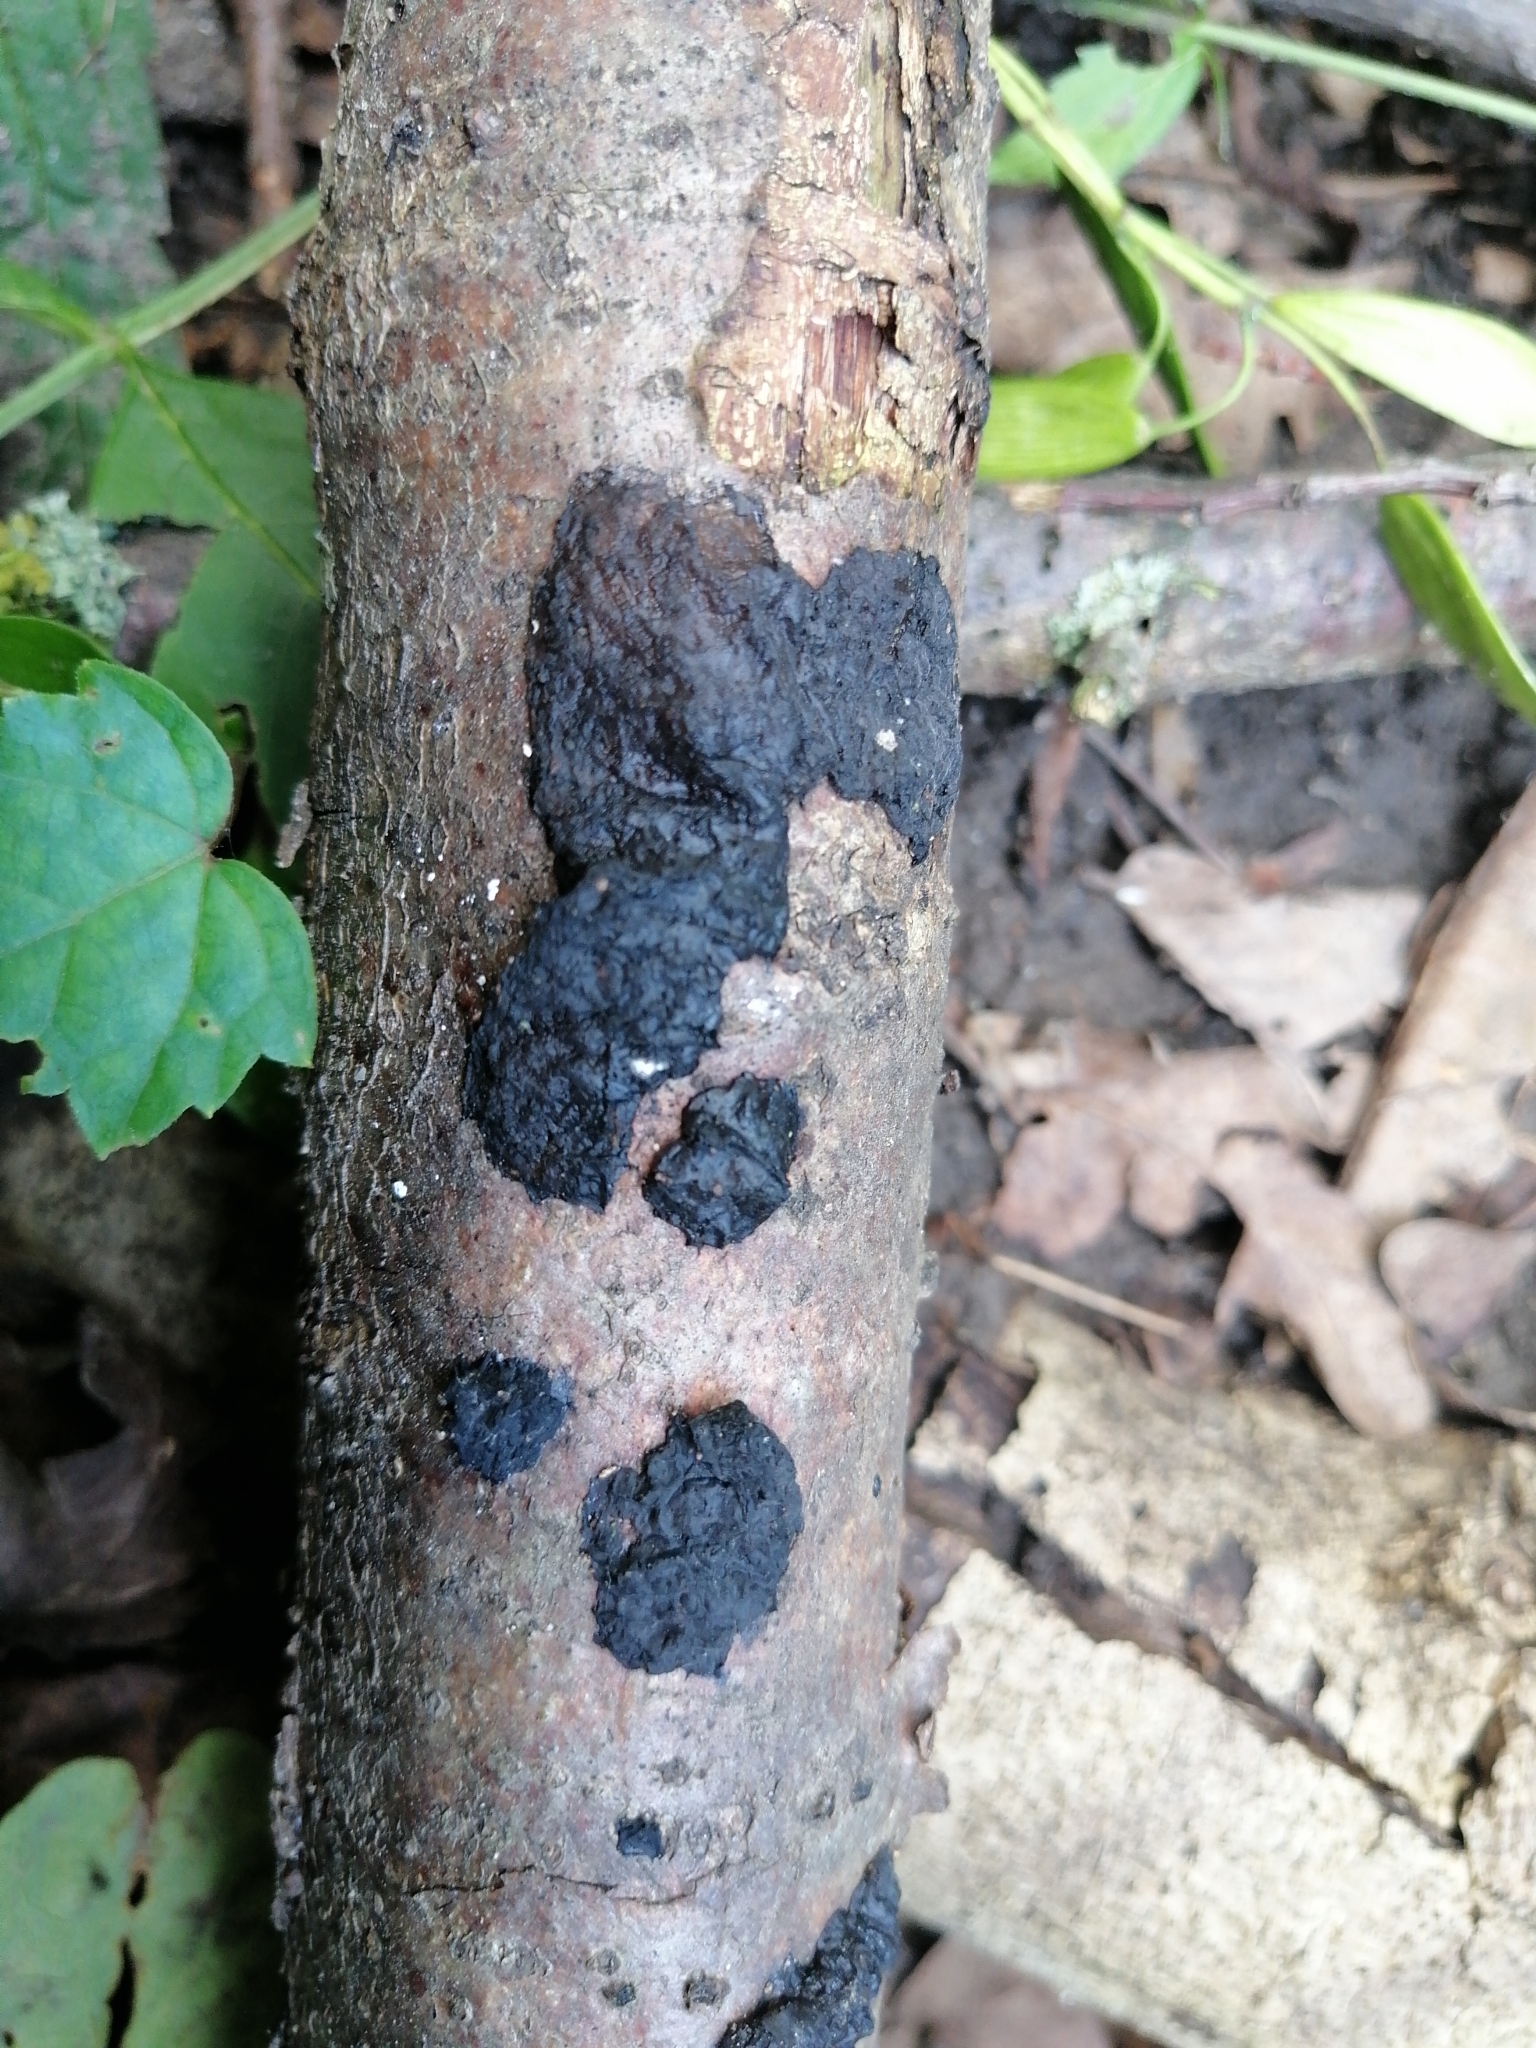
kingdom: Fungi
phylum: Basidiomycota
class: Agaricomycetes
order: Auriculariales
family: Auriculariaceae
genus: Exidia
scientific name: Exidia nigricans
